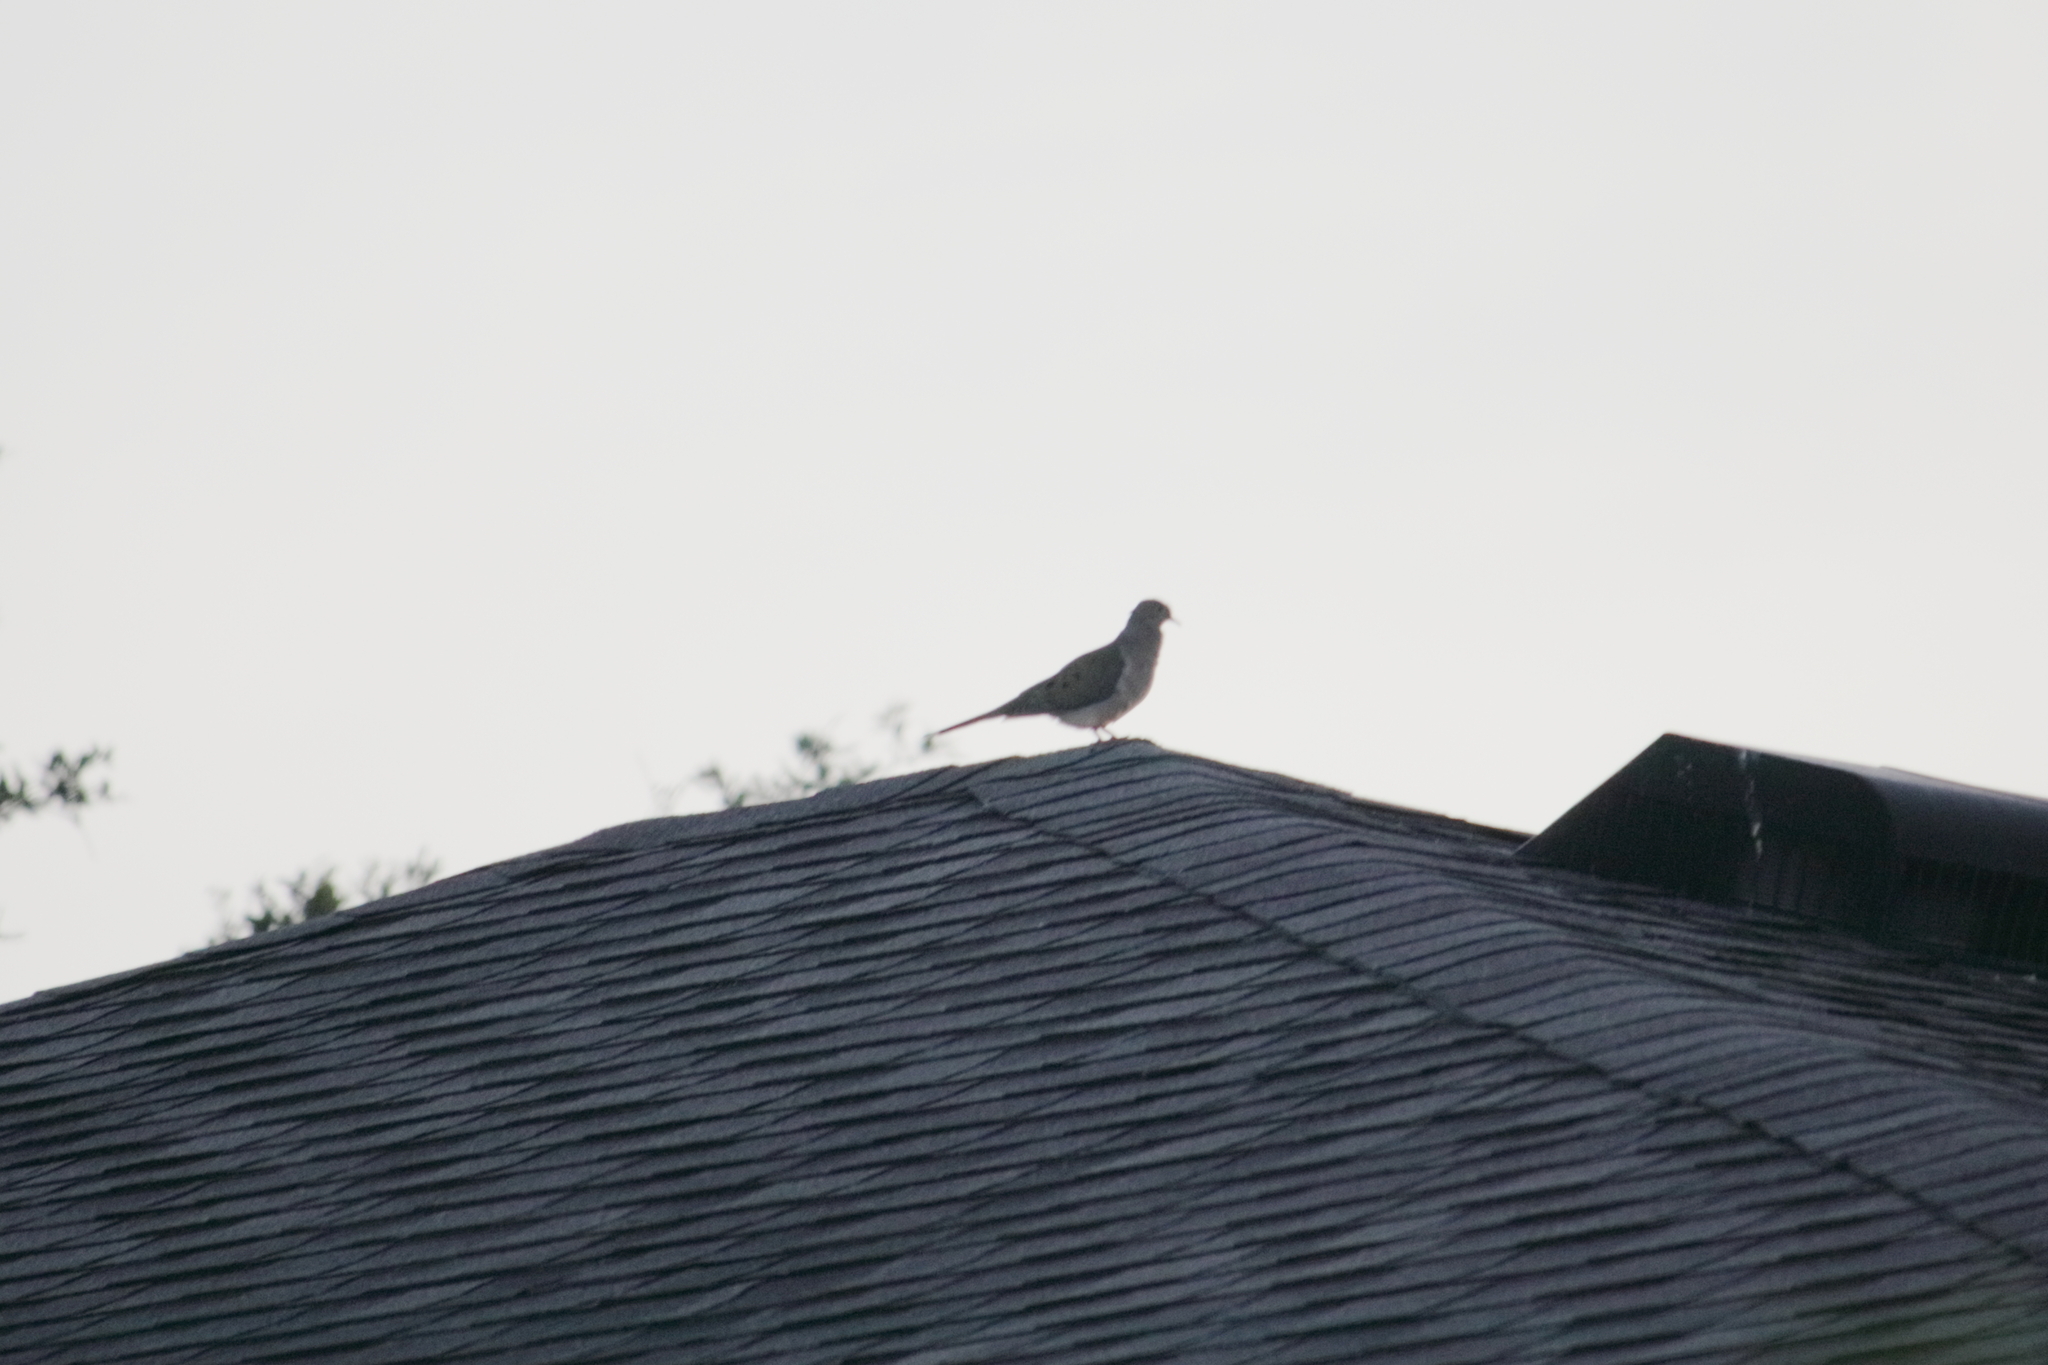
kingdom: Animalia
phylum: Chordata
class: Aves
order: Columbiformes
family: Columbidae
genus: Zenaida
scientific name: Zenaida macroura
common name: Mourning dove
